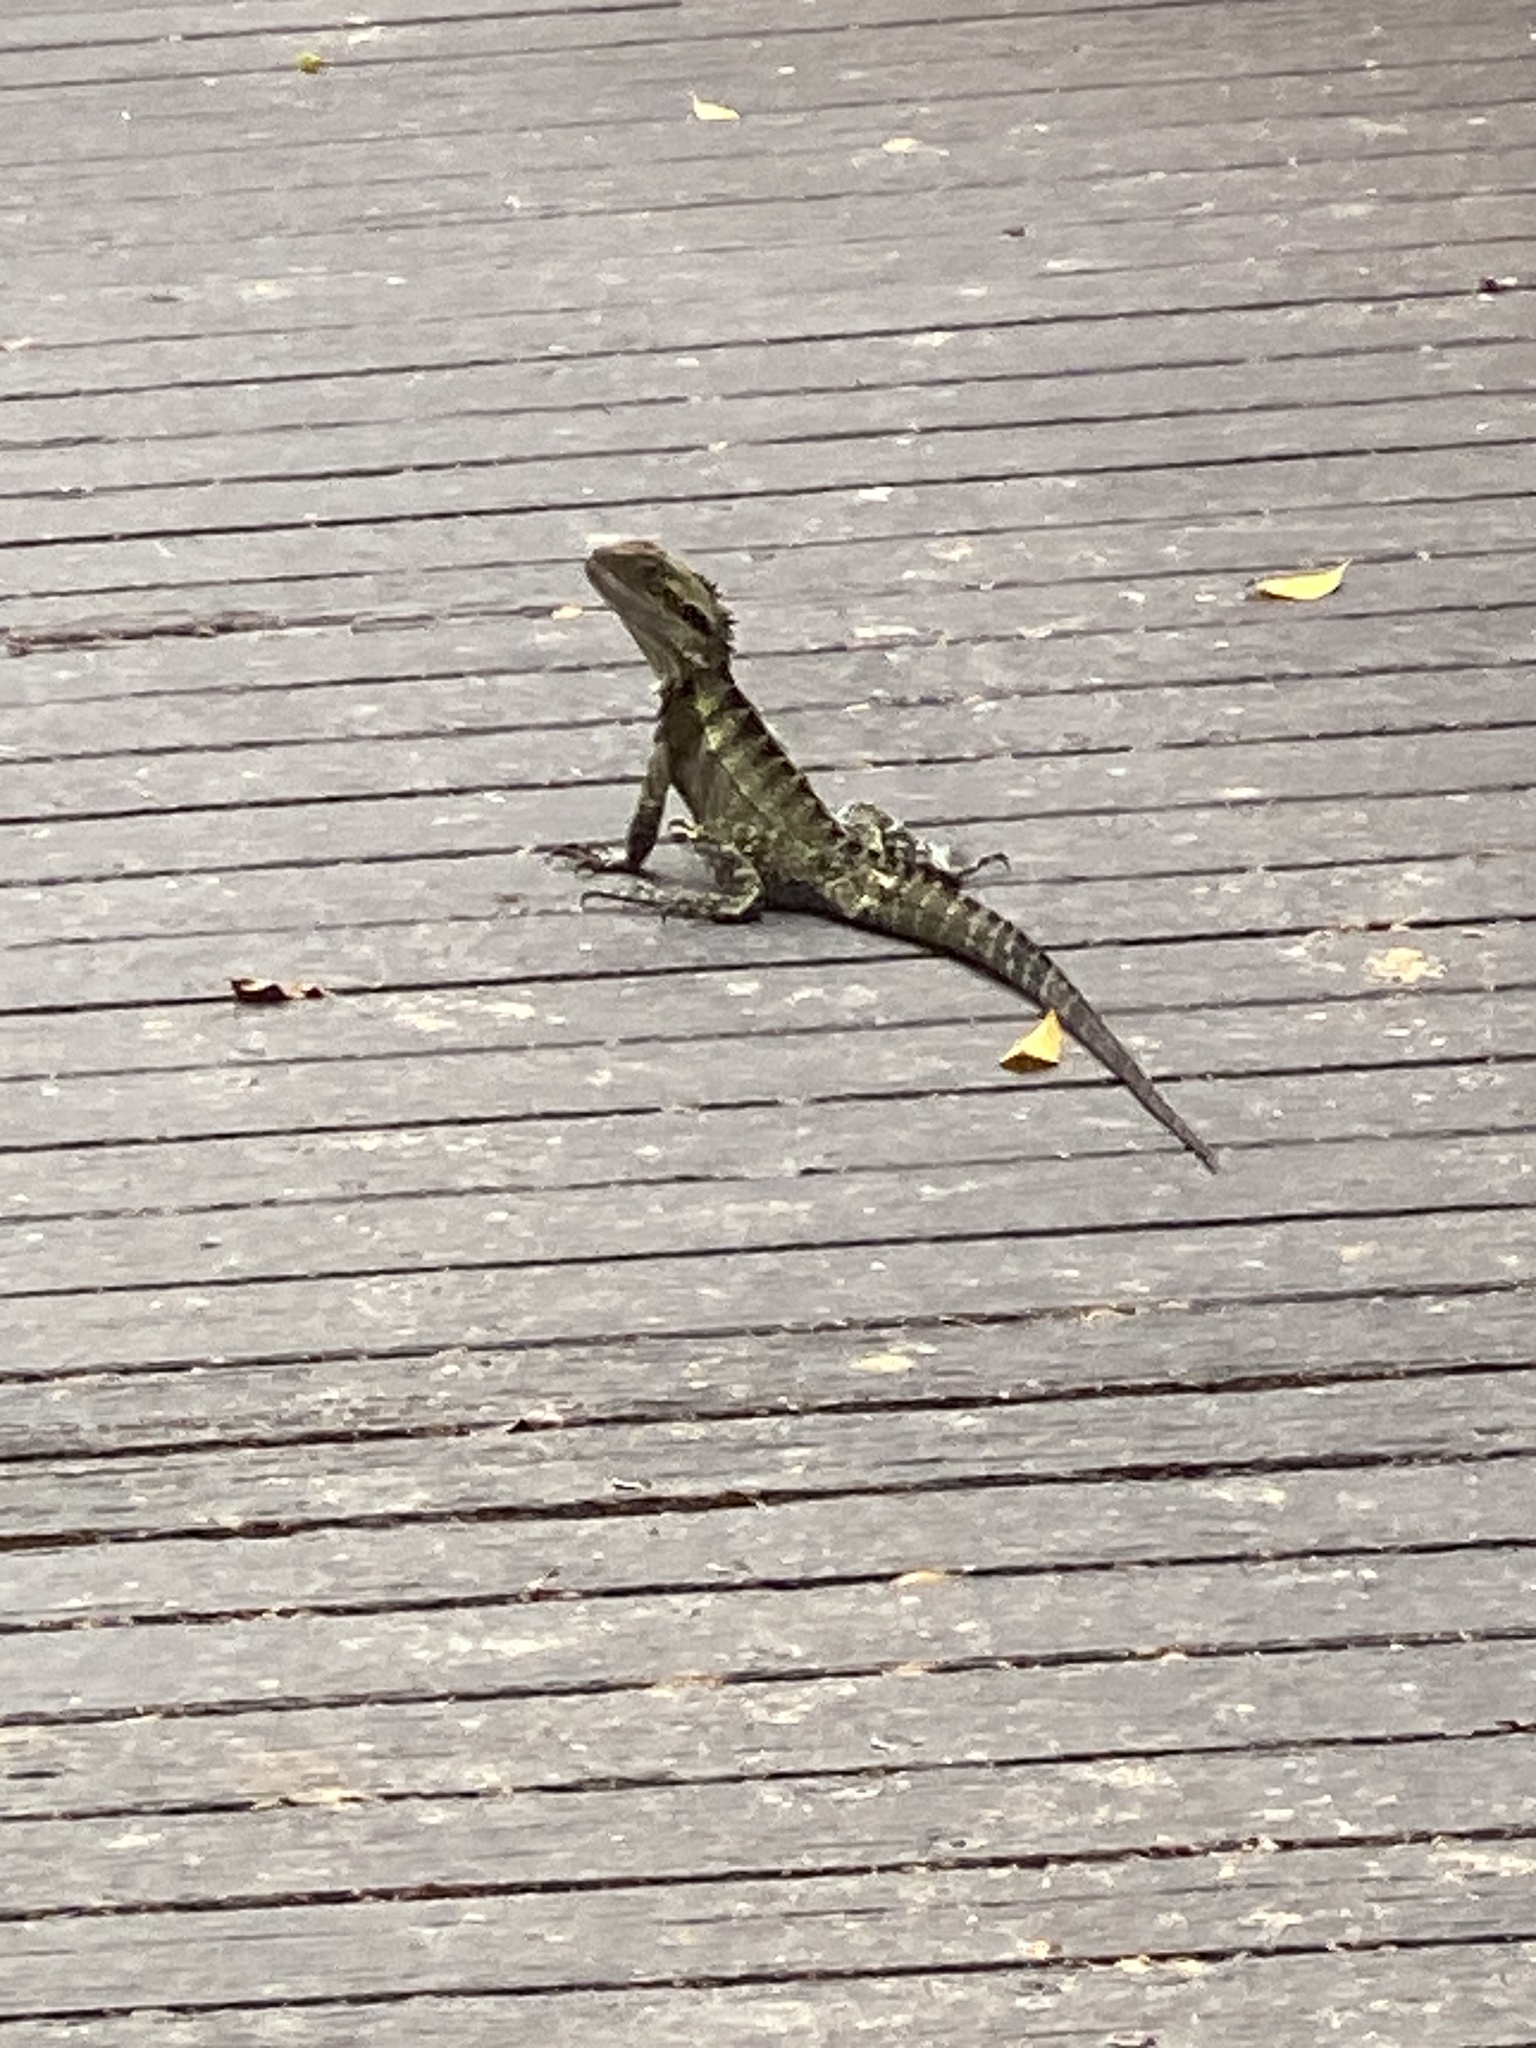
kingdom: Animalia
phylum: Chordata
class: Squamata
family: Agamidae
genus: Intellagama
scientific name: Intellagama lesueurii
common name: Eastern water dragon
